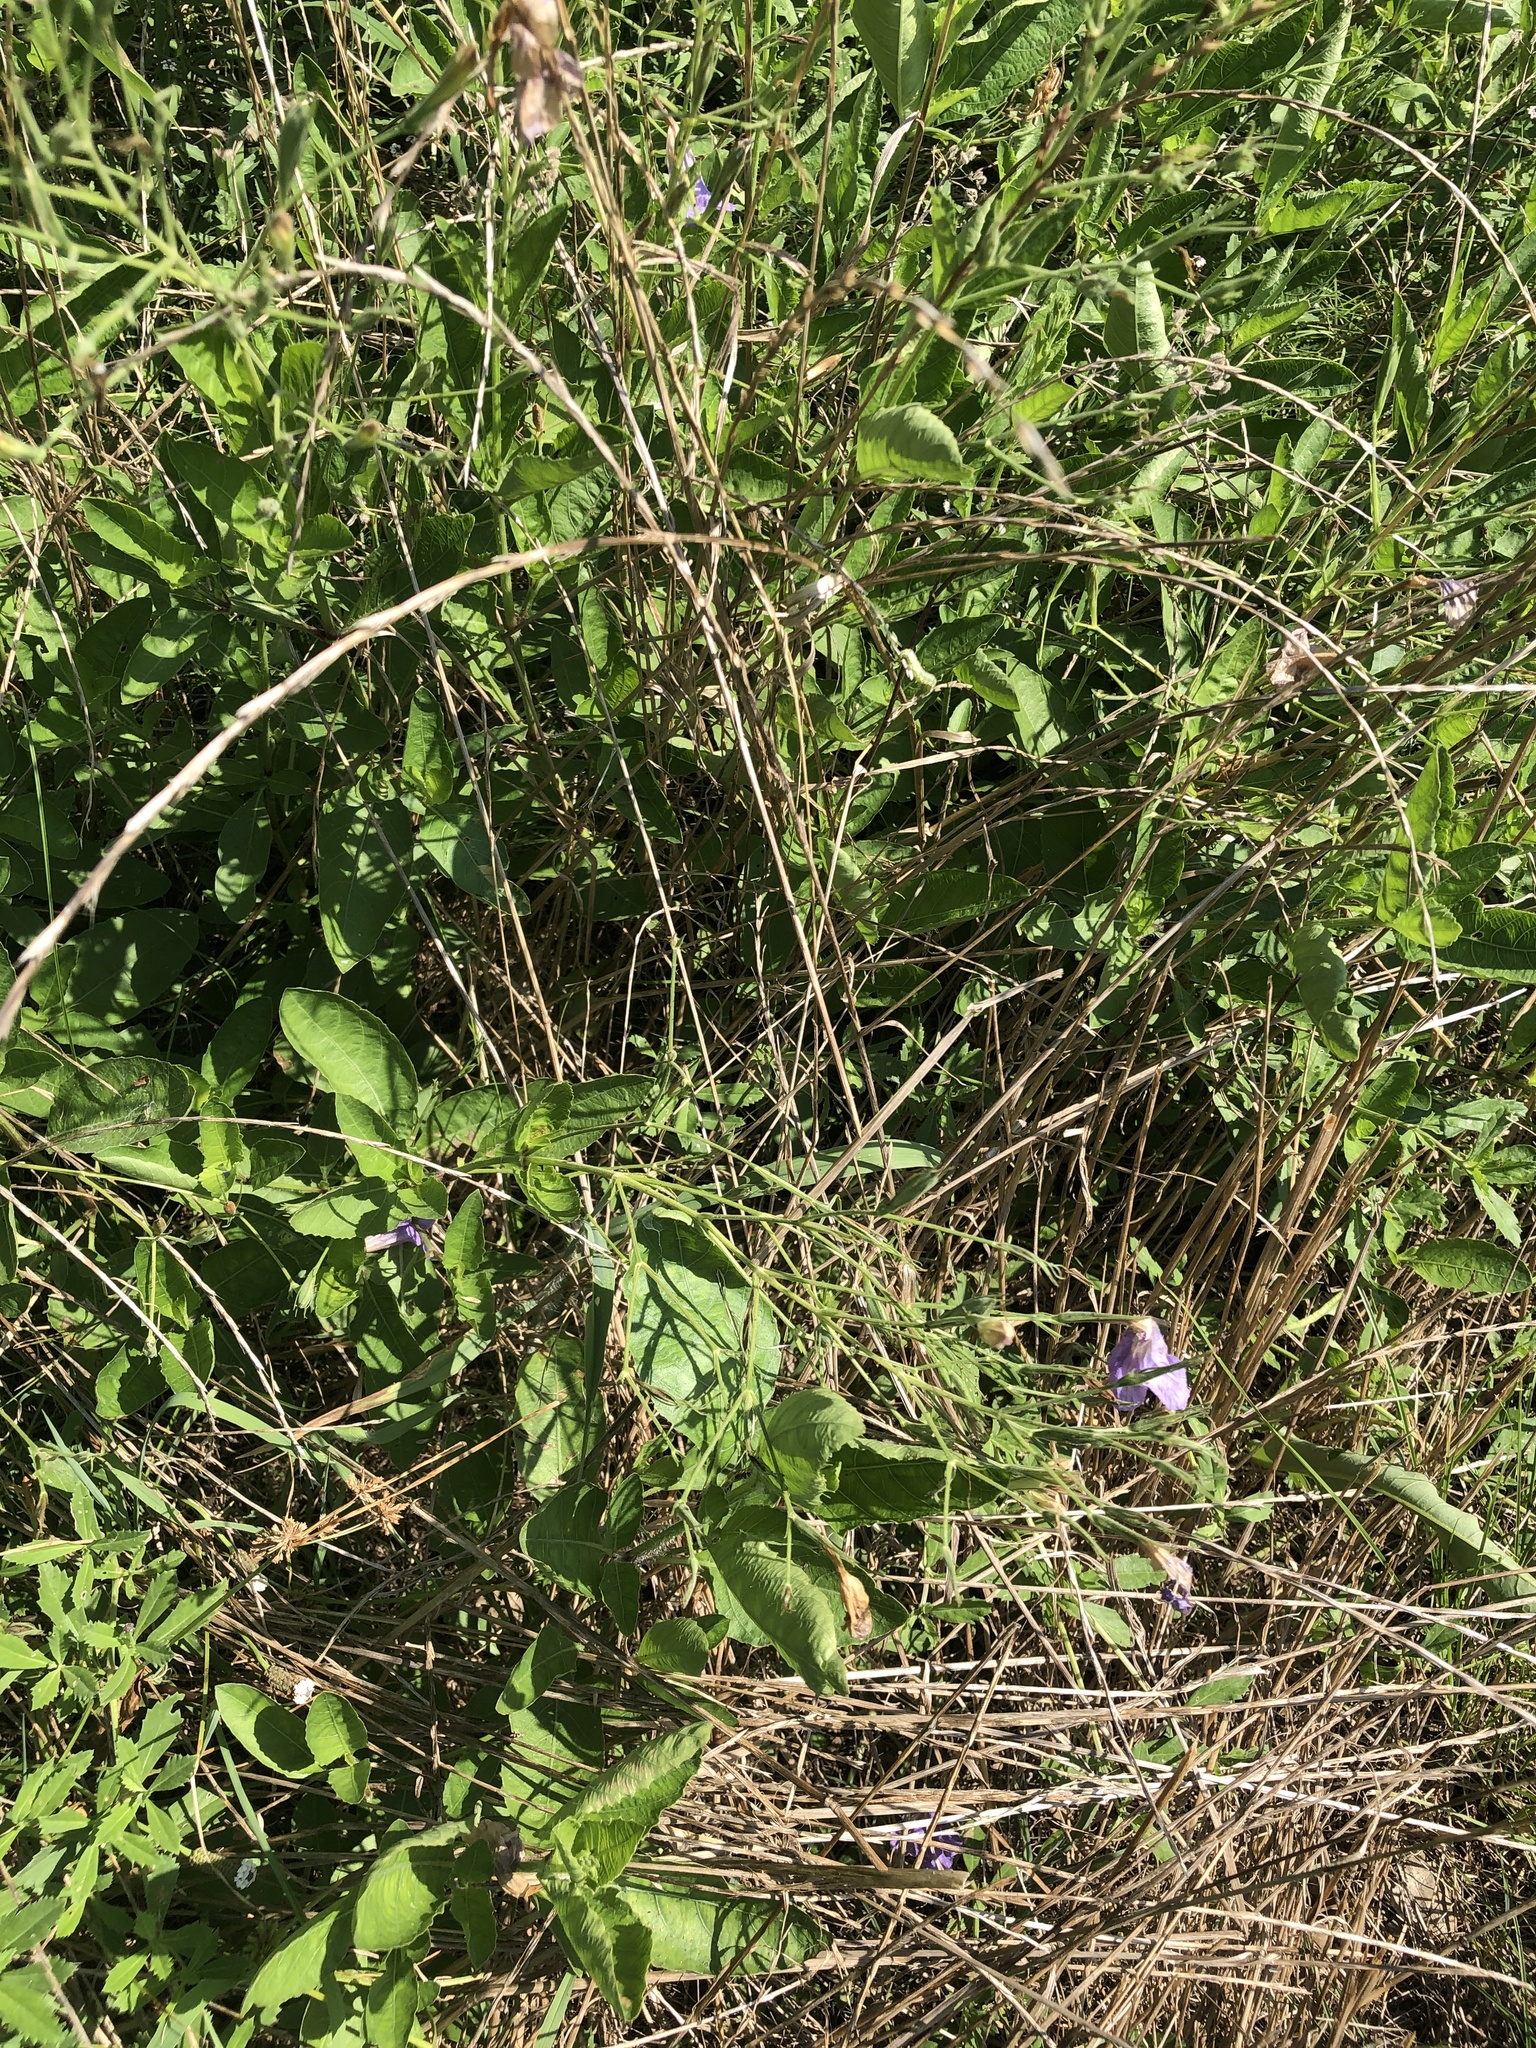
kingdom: Plantae
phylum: Tracheophyta
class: Magnoliopsida
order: Lamiales
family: Acanthaceae
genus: Ruellia
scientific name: Ruellia ciliatiflora
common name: Hairyflower wild petunia
